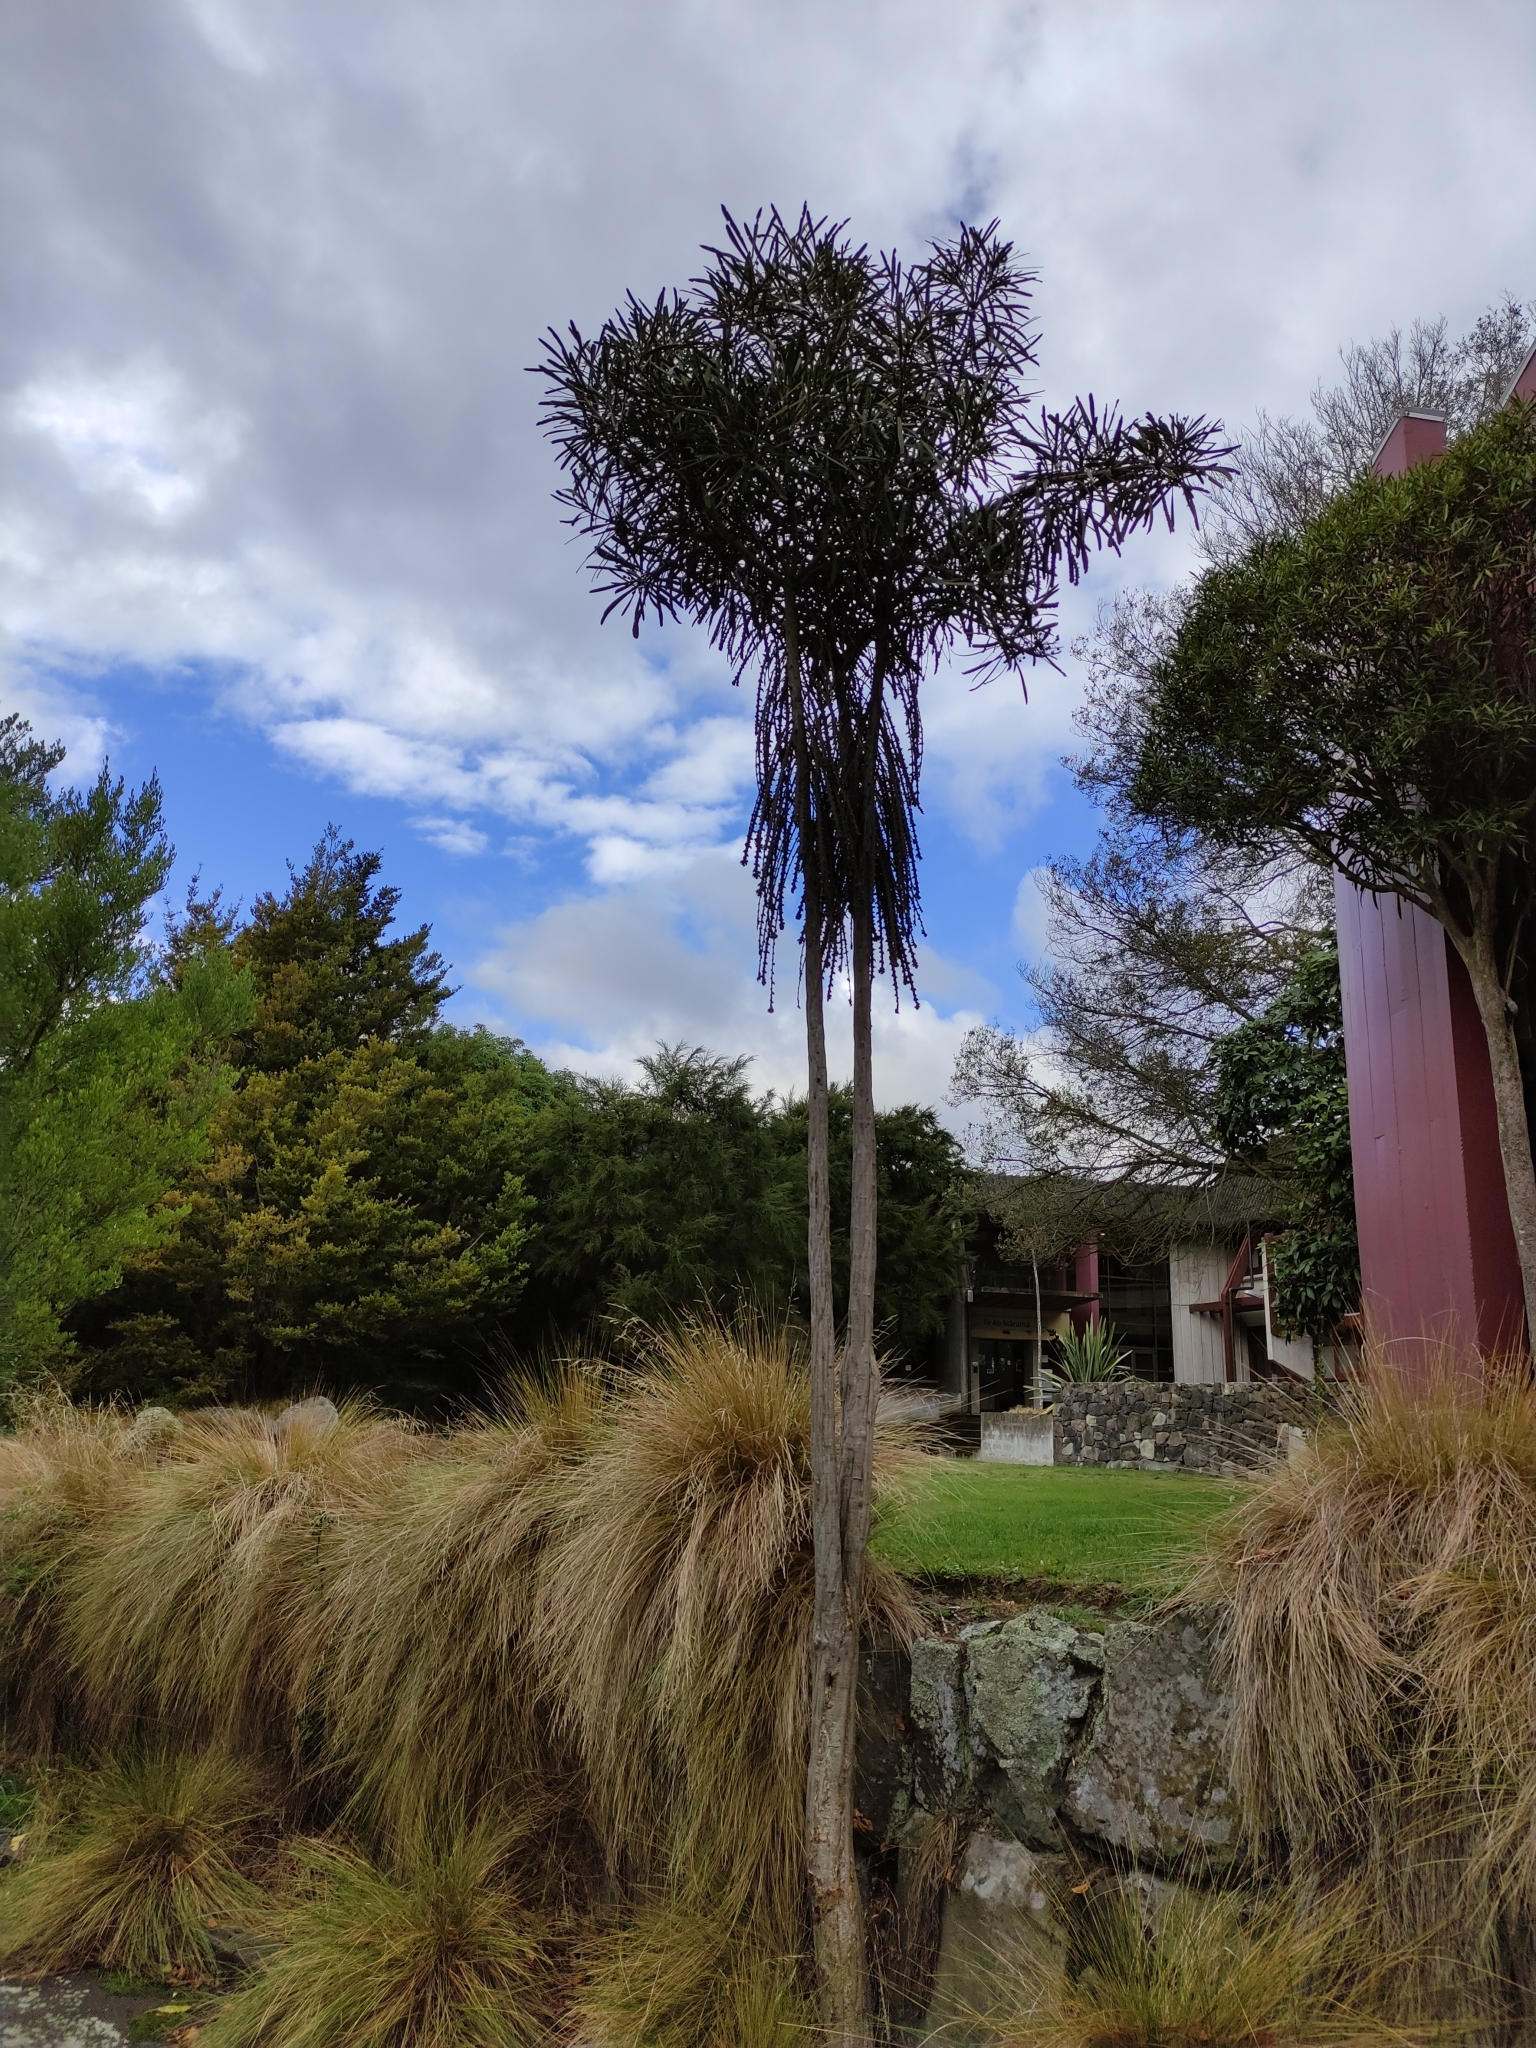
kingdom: Plantae
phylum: Tracheophyta
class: Magnoliopsida
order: Apiales
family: Araliaceae
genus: Pseudopanax
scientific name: Pseudopanax ferox
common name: Fierce lancewood
